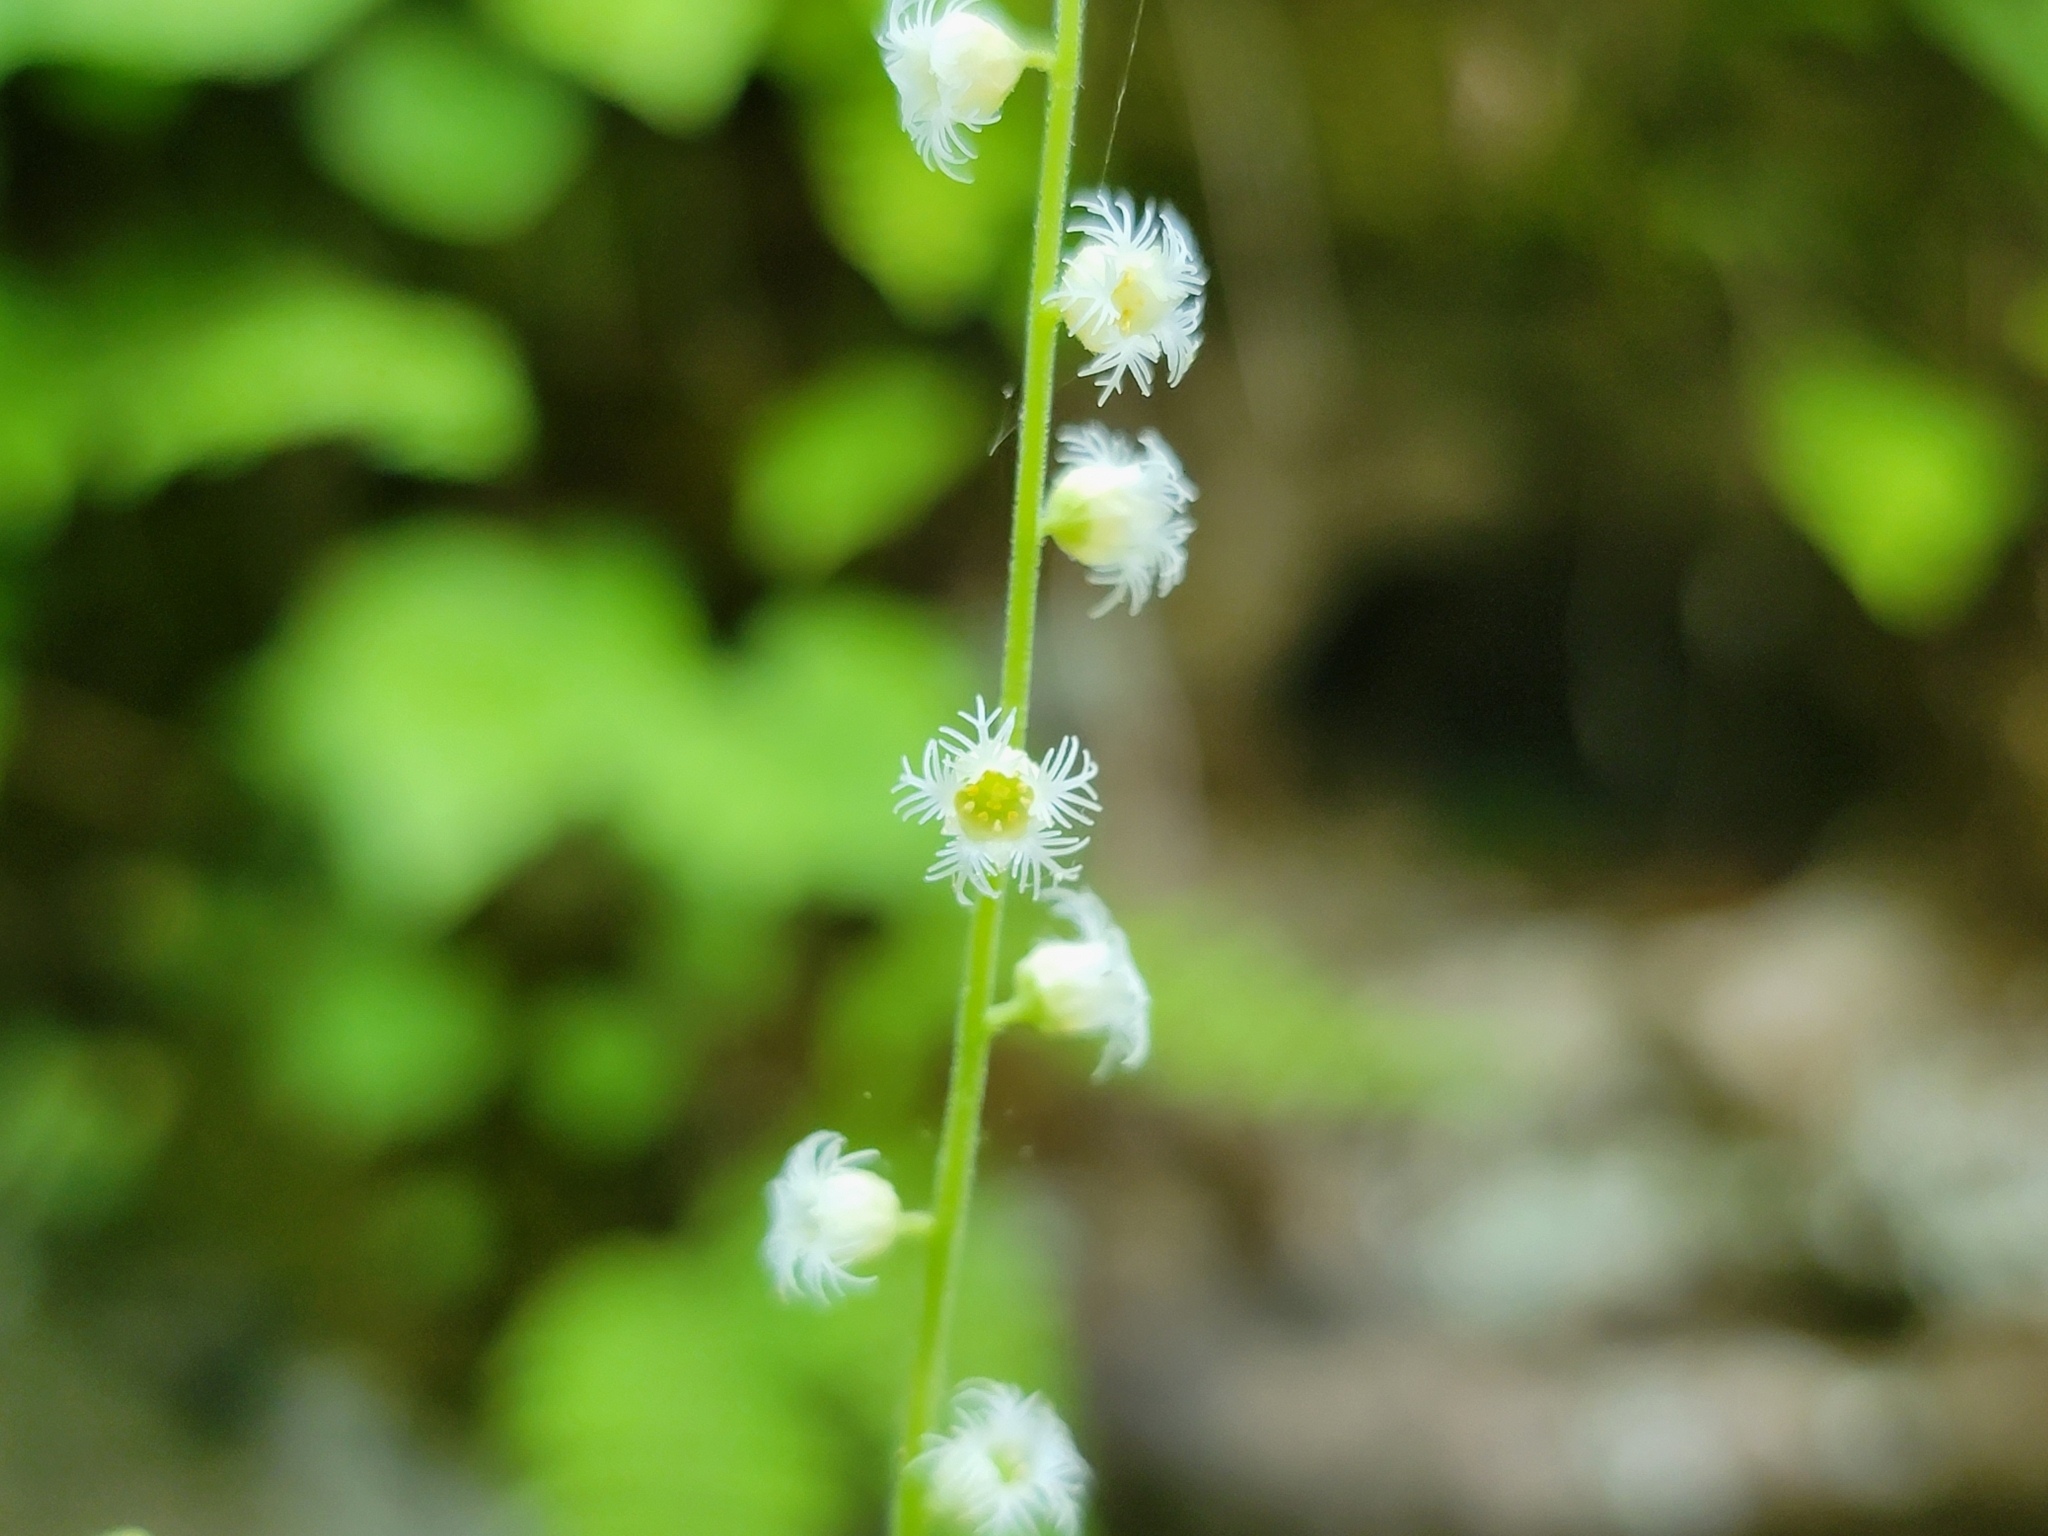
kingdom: Plantae
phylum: Tracheophyta
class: Magnoliopsida
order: Saxifragales
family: Saxifragaceae
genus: Mitella
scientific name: Mitella diphylla
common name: Coolwort
